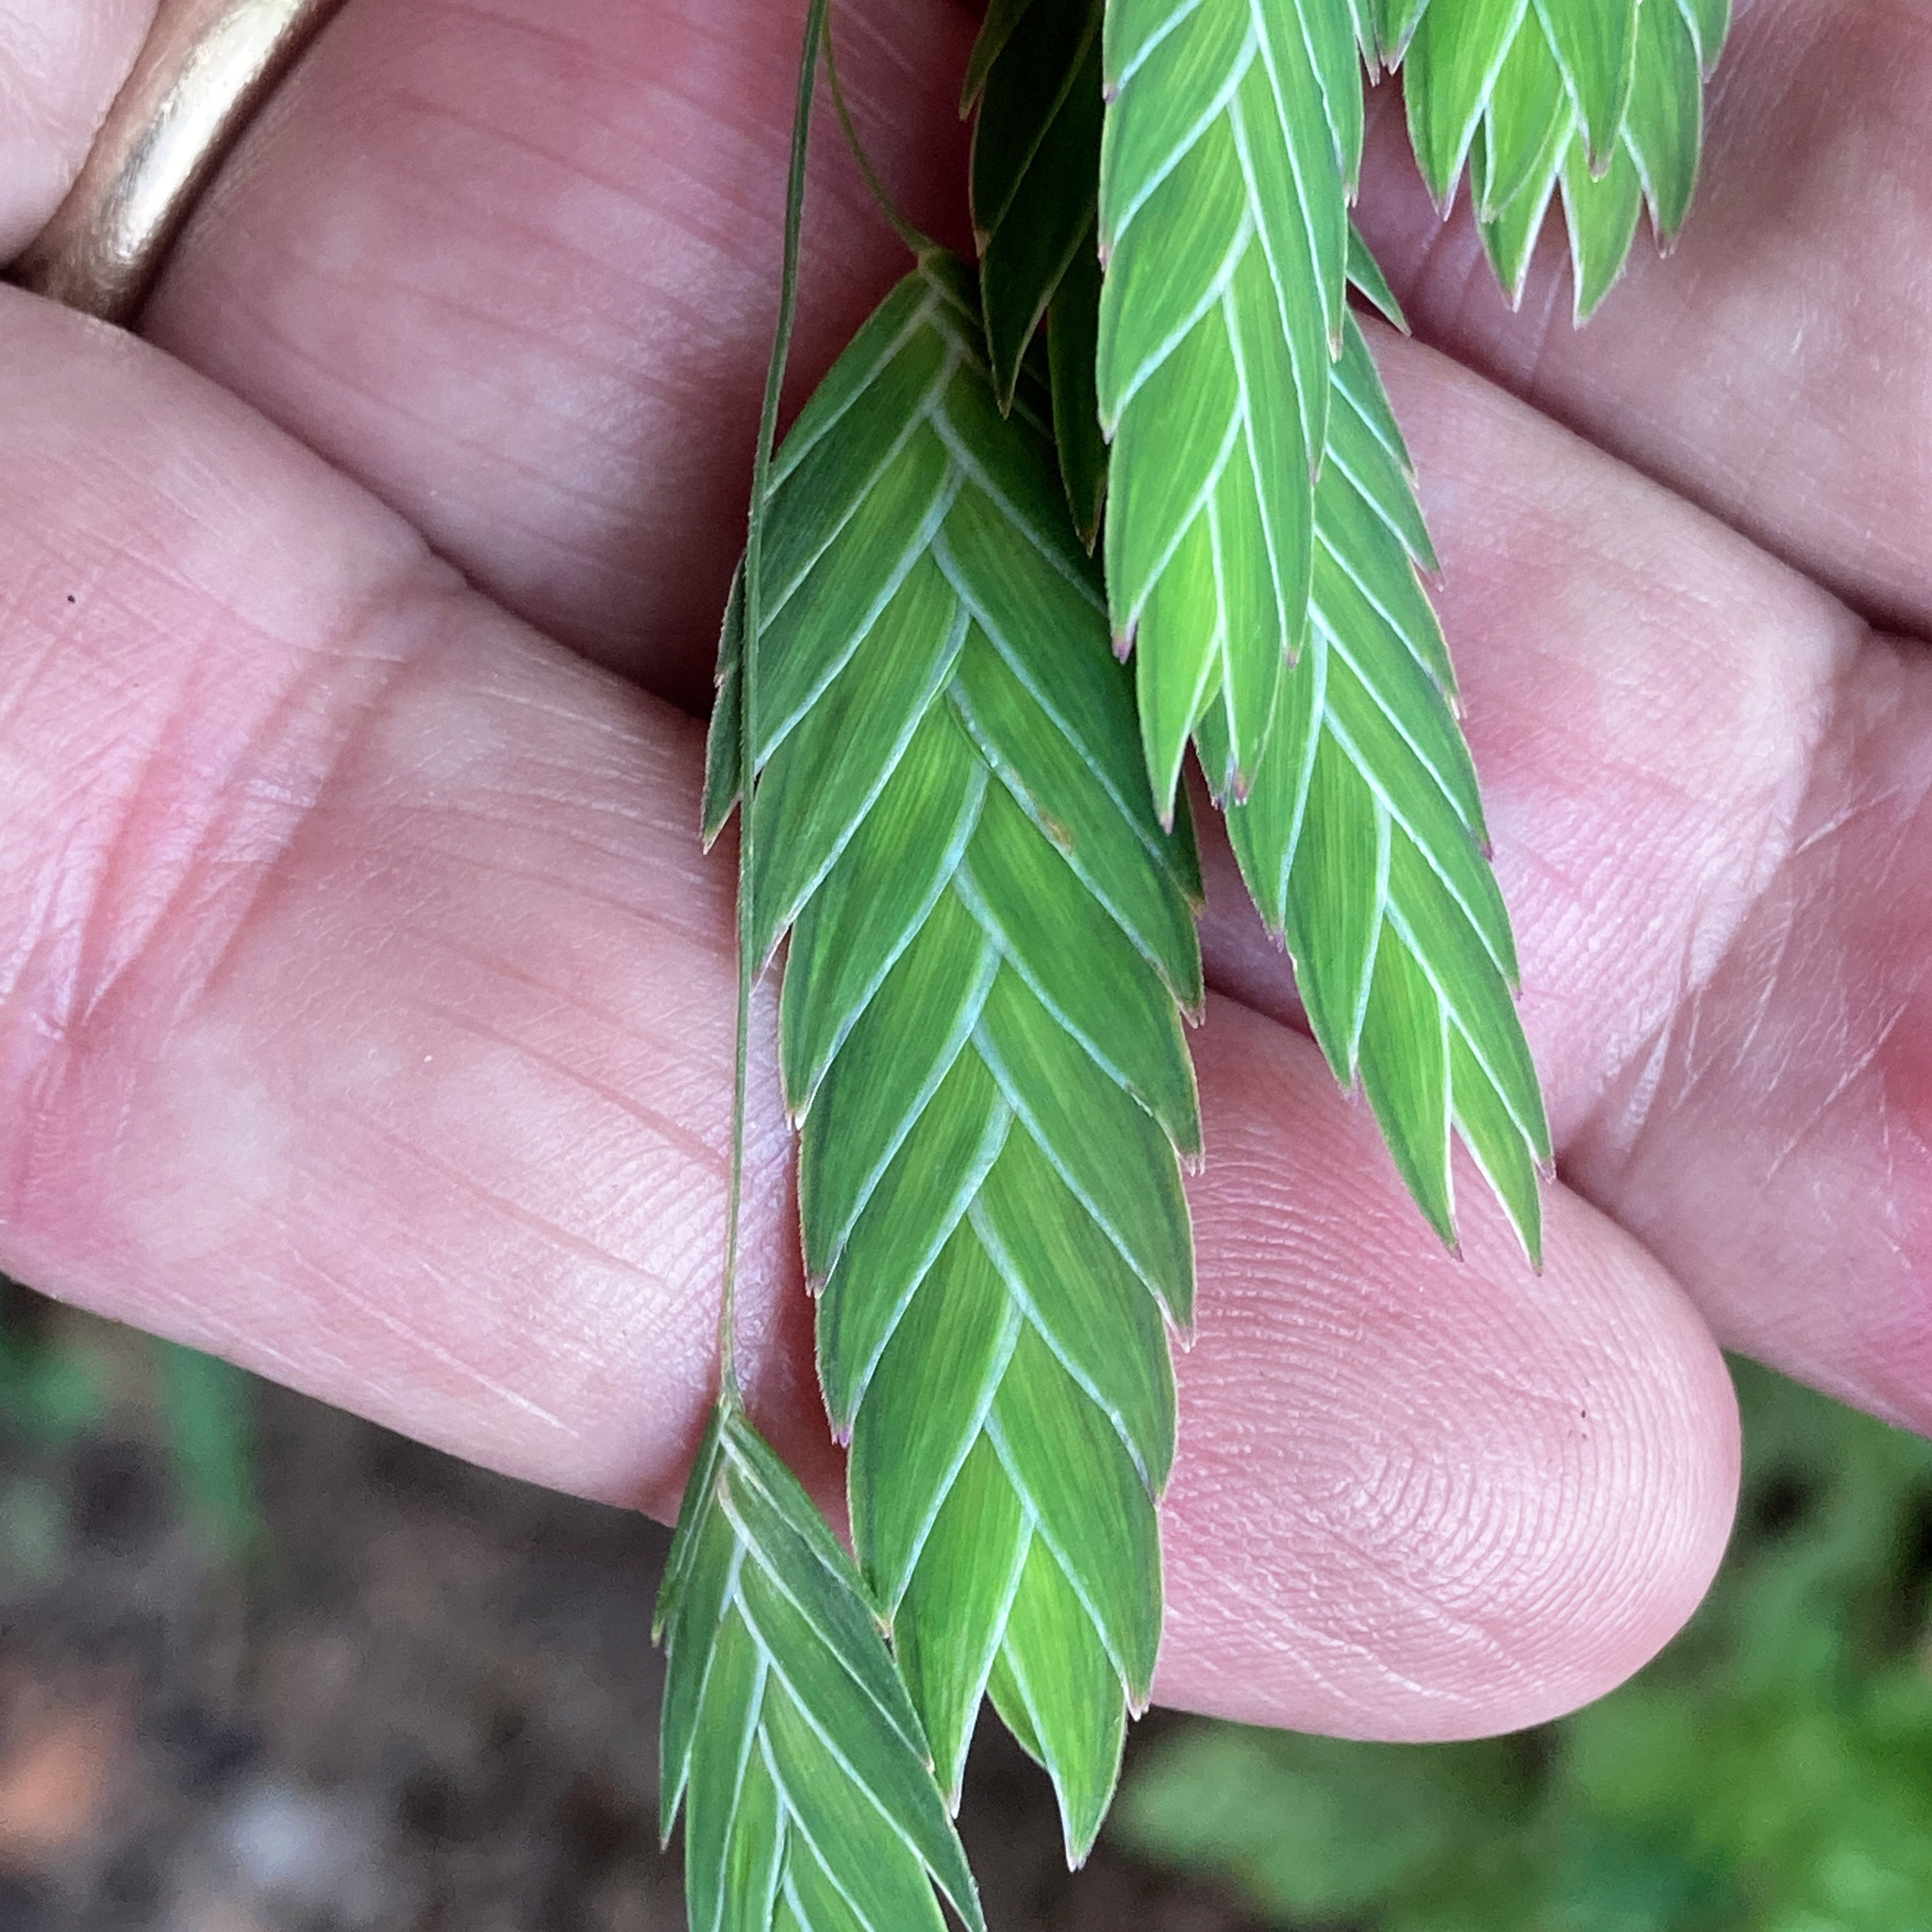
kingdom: Plantae
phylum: Tracheophyta
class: Liliopsida
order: Poales
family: Poaceae
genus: Chasmanthium
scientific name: Chasmanthium latifolium
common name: Broad-leaved chasmanthium
